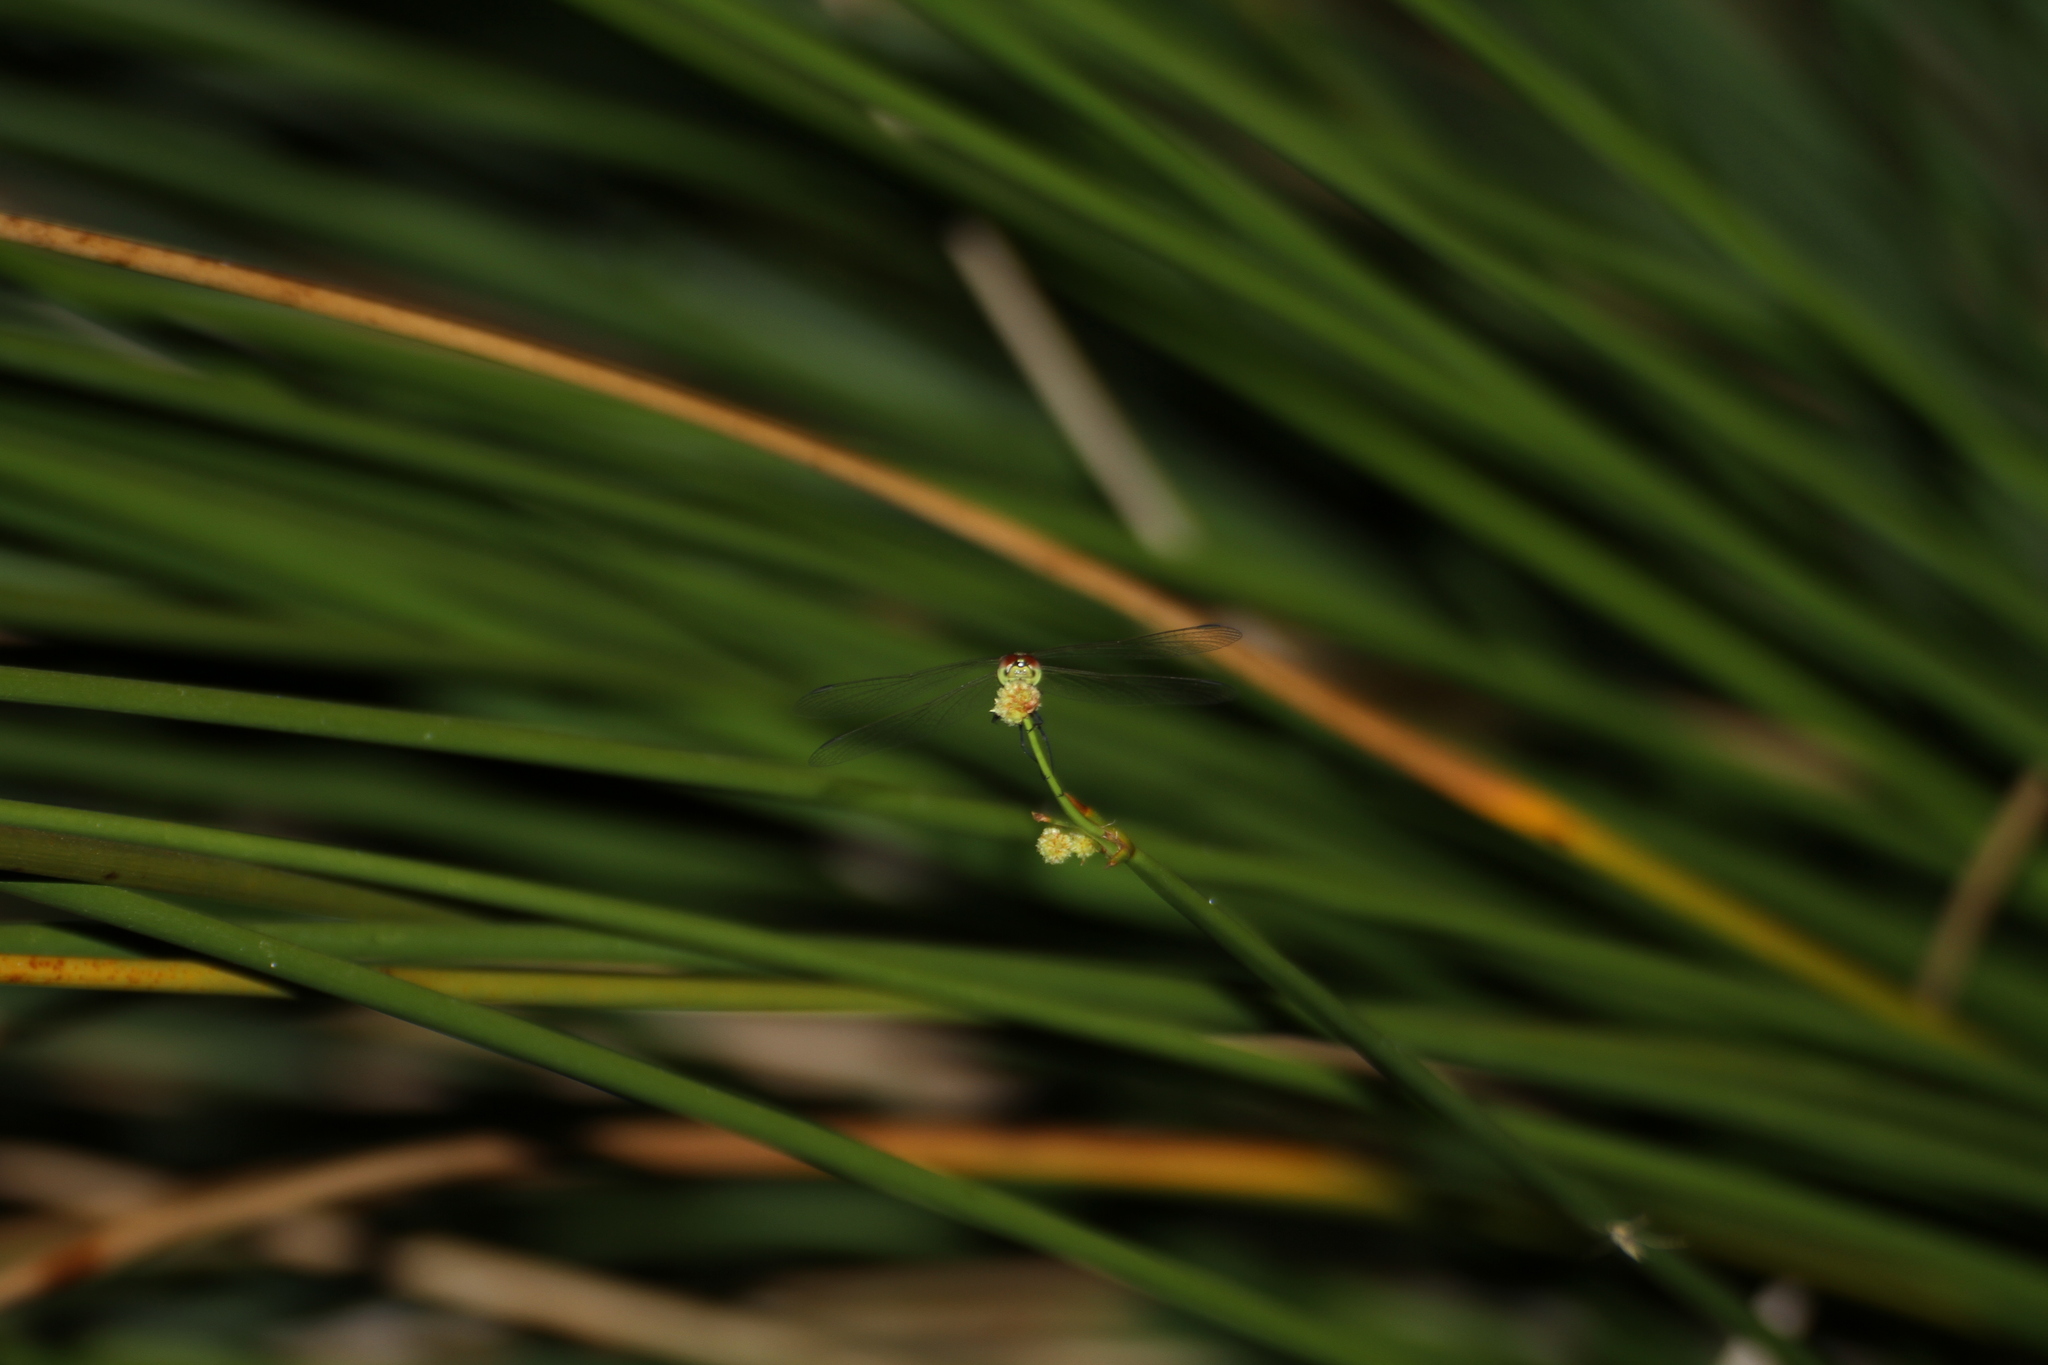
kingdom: Animalia
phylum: Arthropoda
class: Insecta
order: Odonata
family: Libellulidae
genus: Sympetrum
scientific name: Sympetrum depressiusculum
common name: Spotted darter
